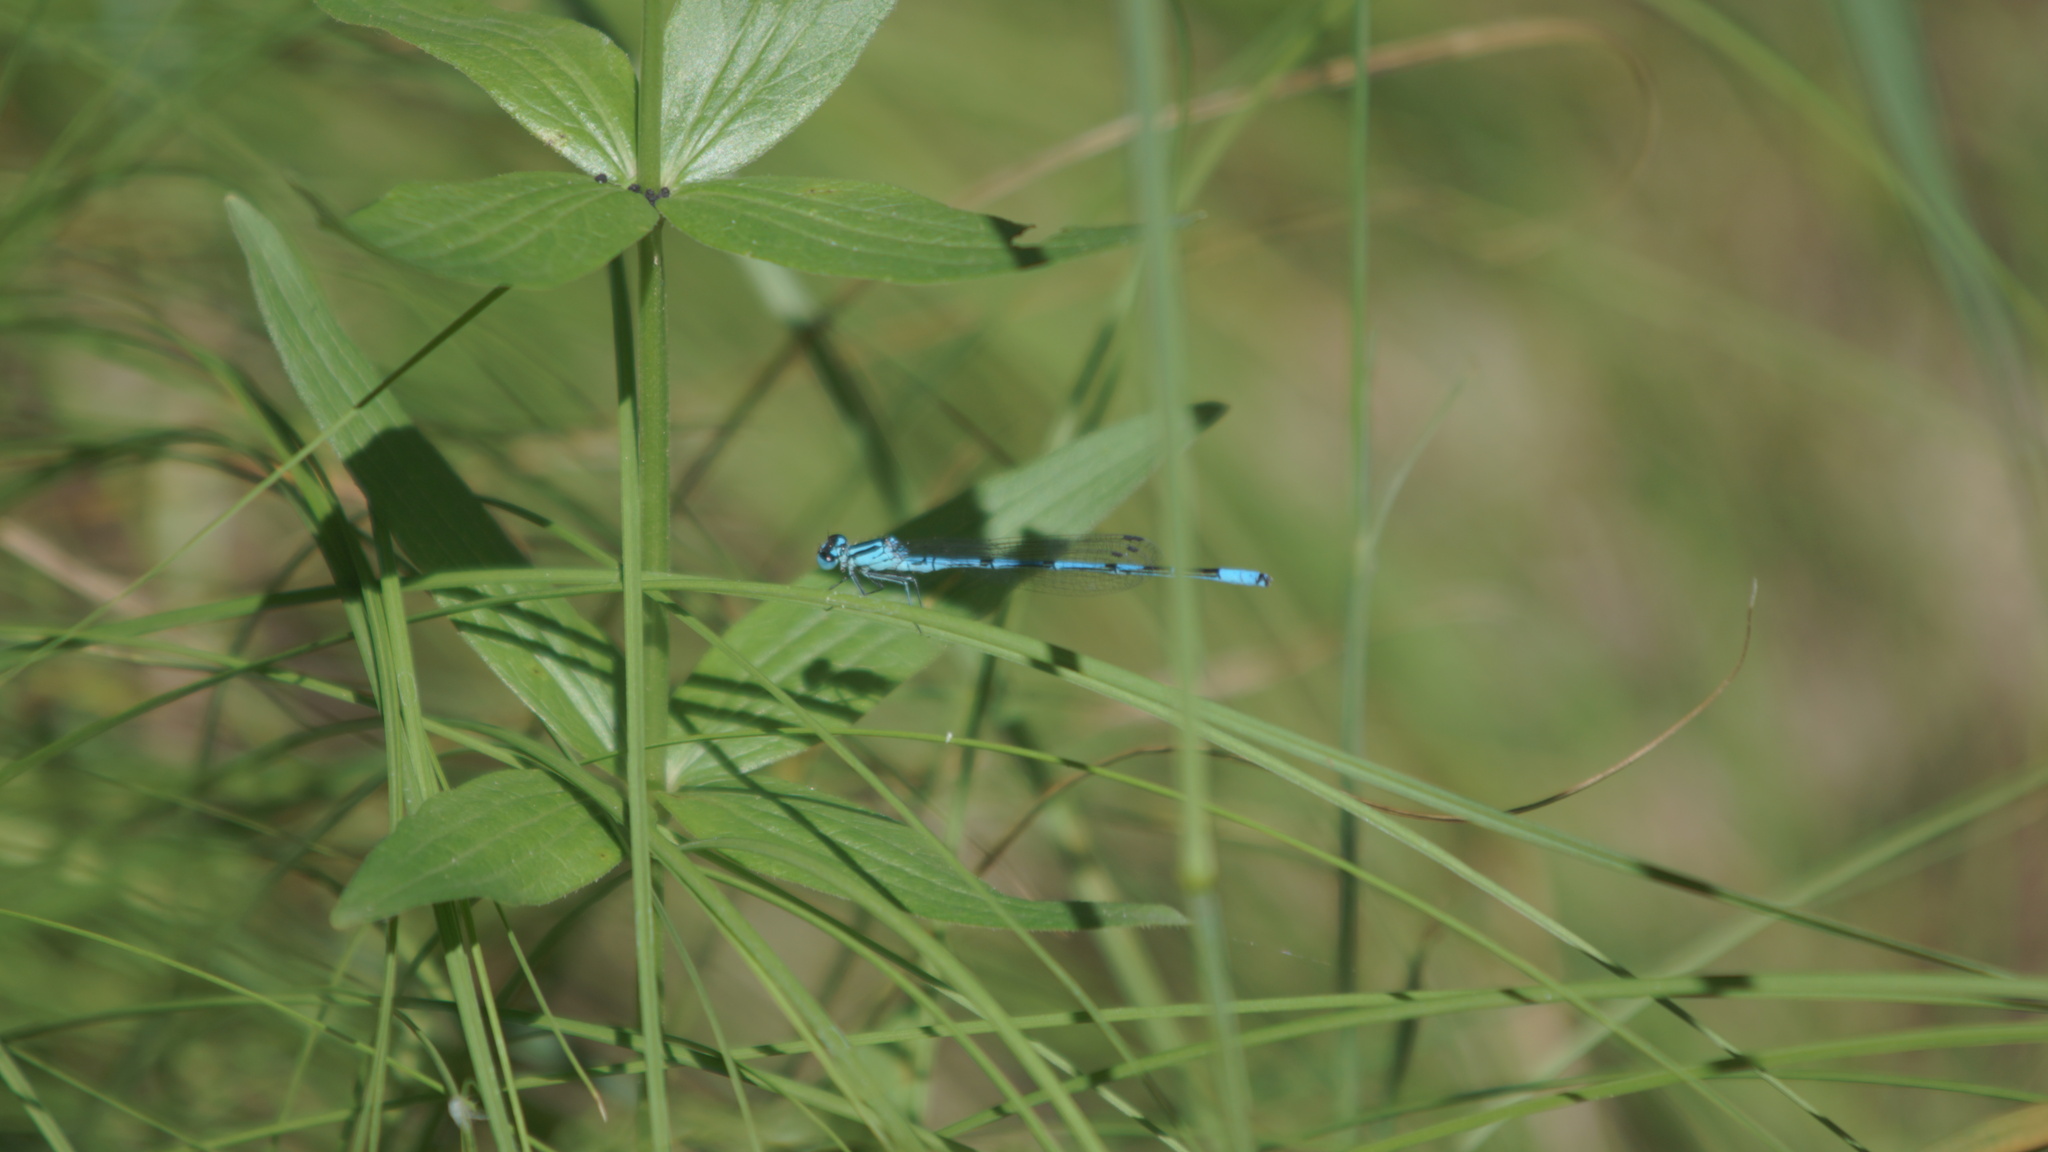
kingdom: Animalia
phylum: Arthropoda
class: Insecta
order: Odonata
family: Coenagrionidae
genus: Coenagrion
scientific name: Coenagrion puella
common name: Azure damselfly
